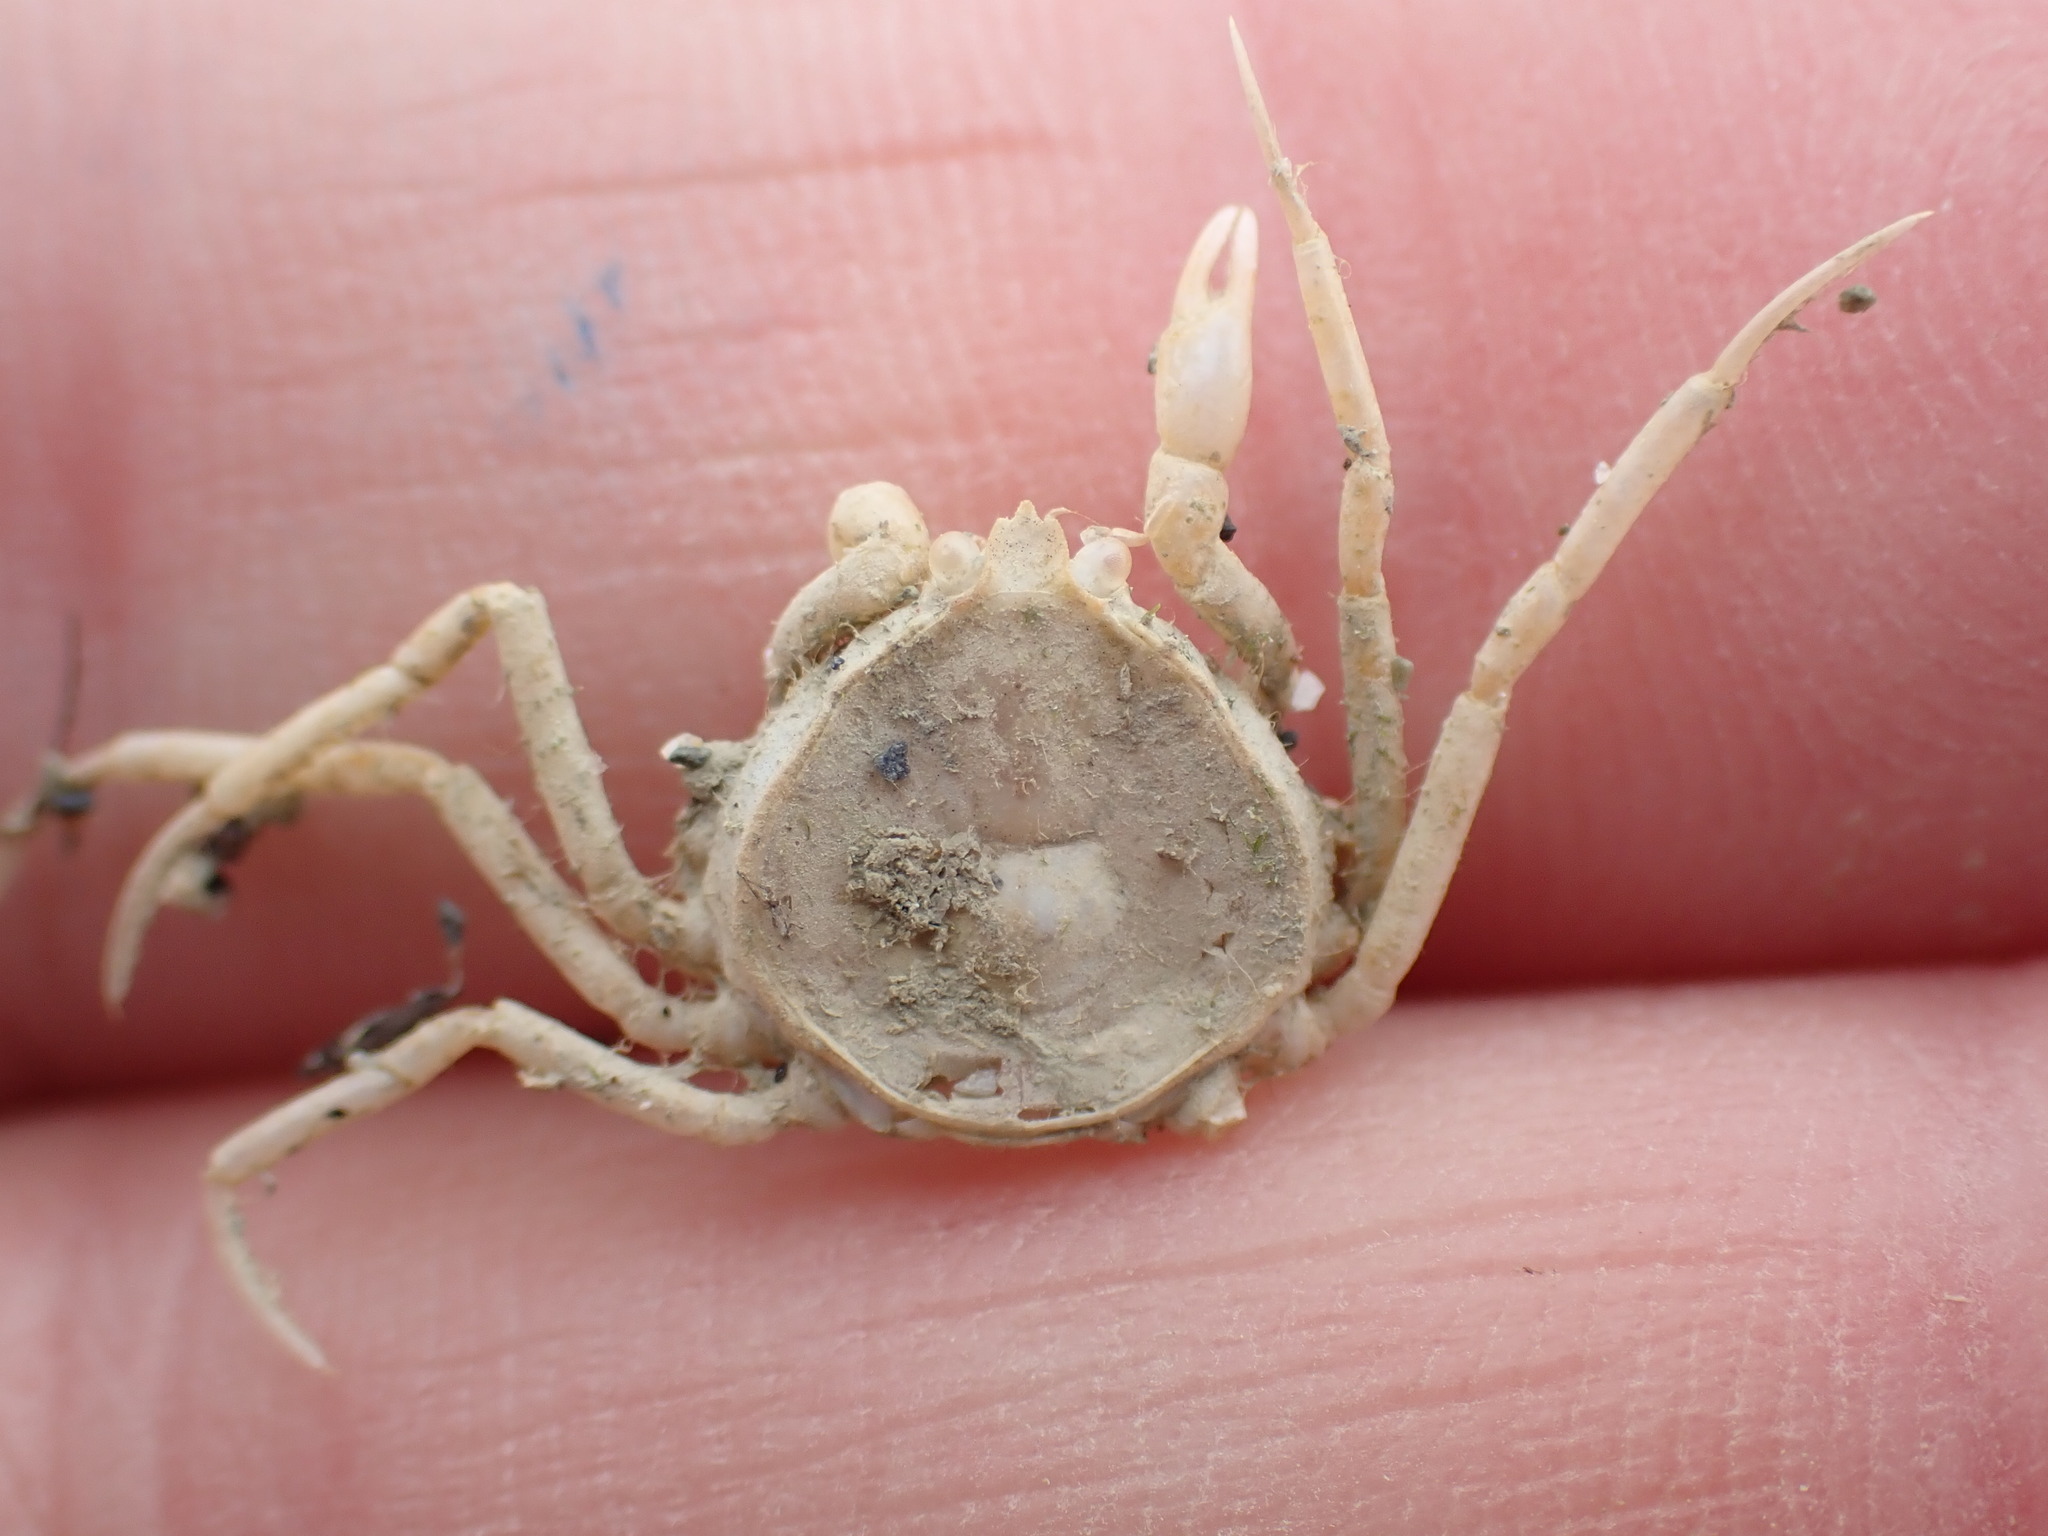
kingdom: Animalia
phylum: Arthropoda
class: Malacostraca
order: Decapoda
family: Hymenosomatidae
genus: Halicarcinus
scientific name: Halicarcinus whitei
